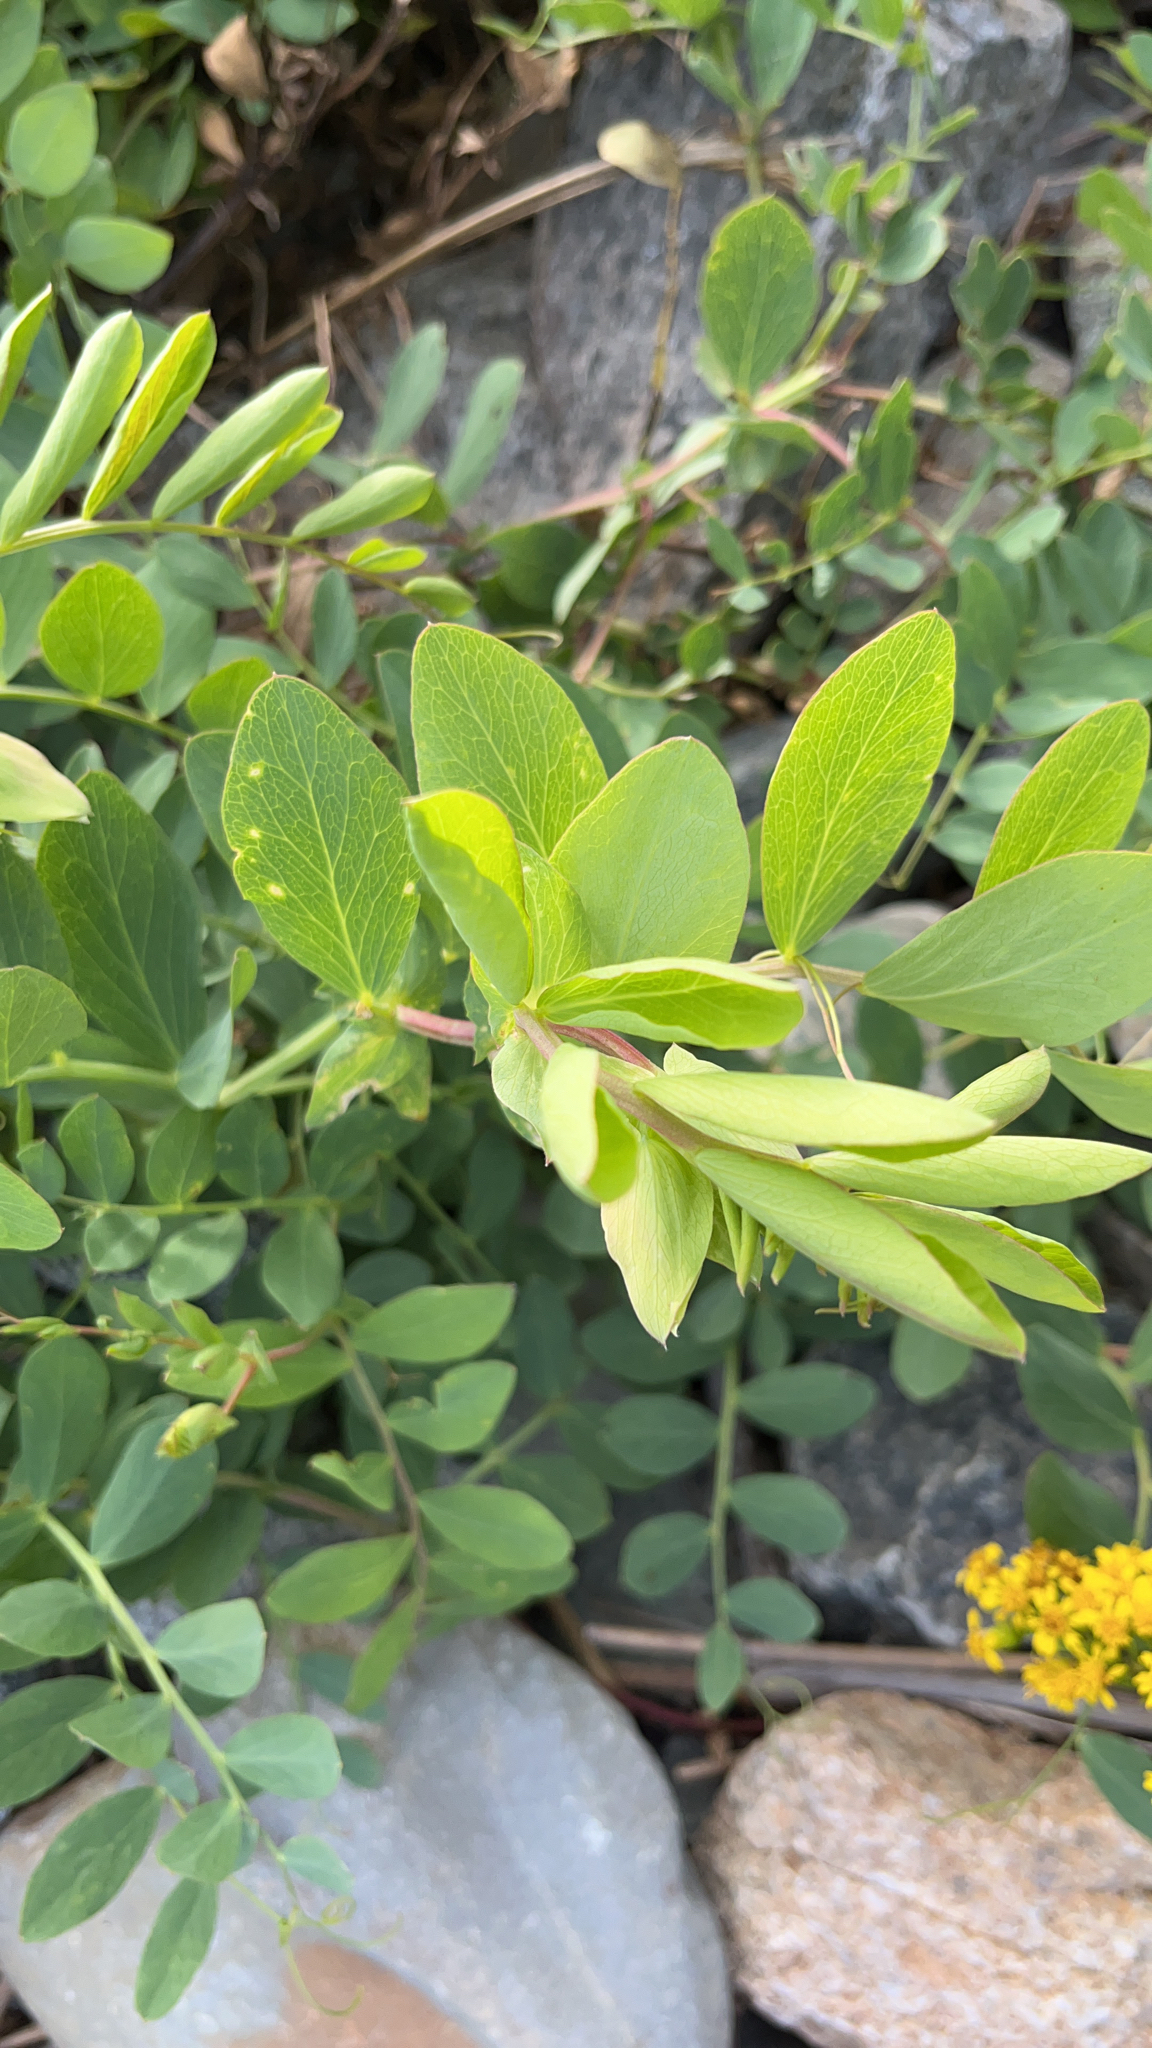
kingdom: Plantae
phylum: Tracheophyta
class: Magnoliopsida
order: Fabales
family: Fabaceae
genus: Lathyrus
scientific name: Lathyrus japonicus
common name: Sea pea
